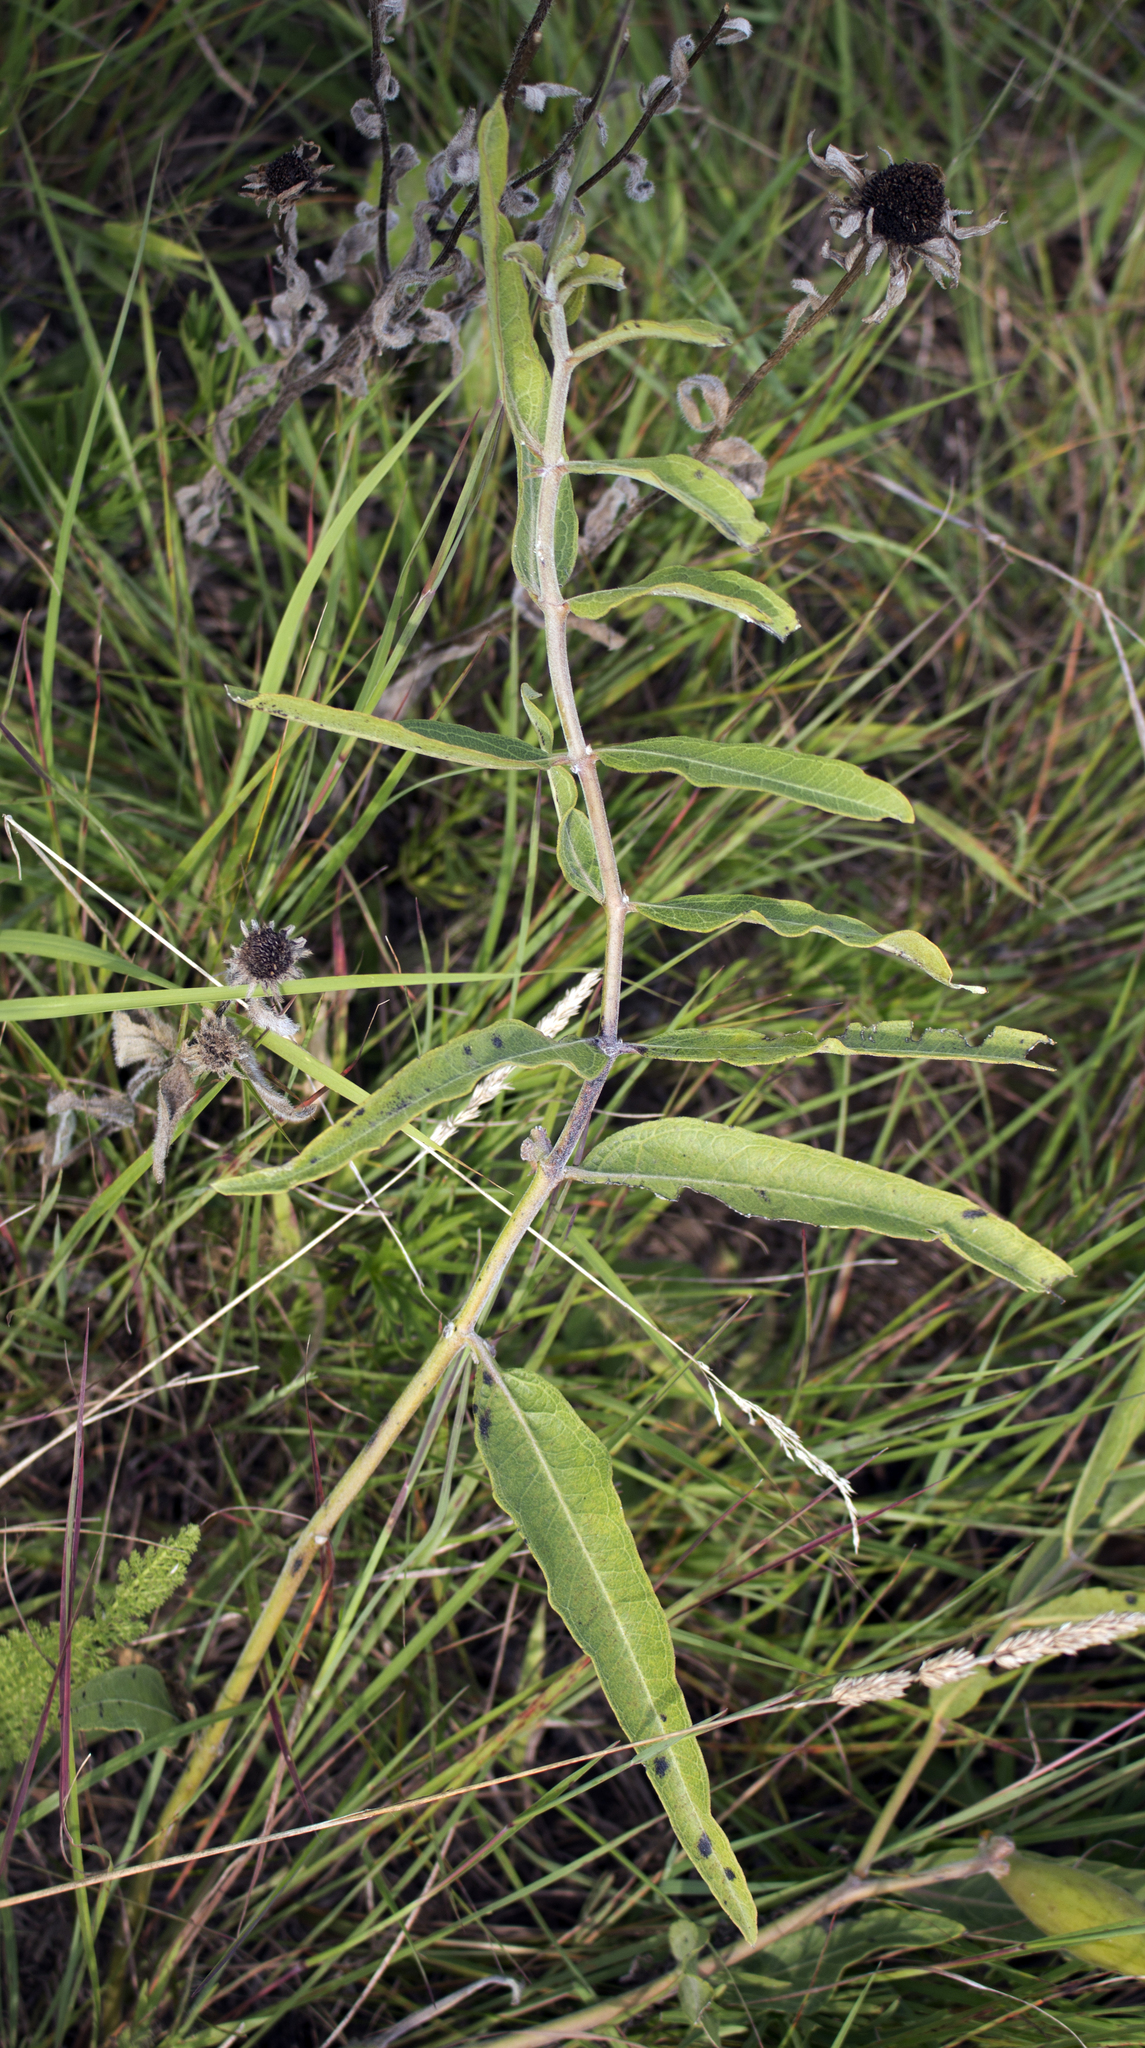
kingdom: Plantae
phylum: Tracheophyta
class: Magnoliopsida
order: Gentianales
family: Apocynaceae
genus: Asclepias
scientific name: Asclepias viridiflora
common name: Green comet milkweed
